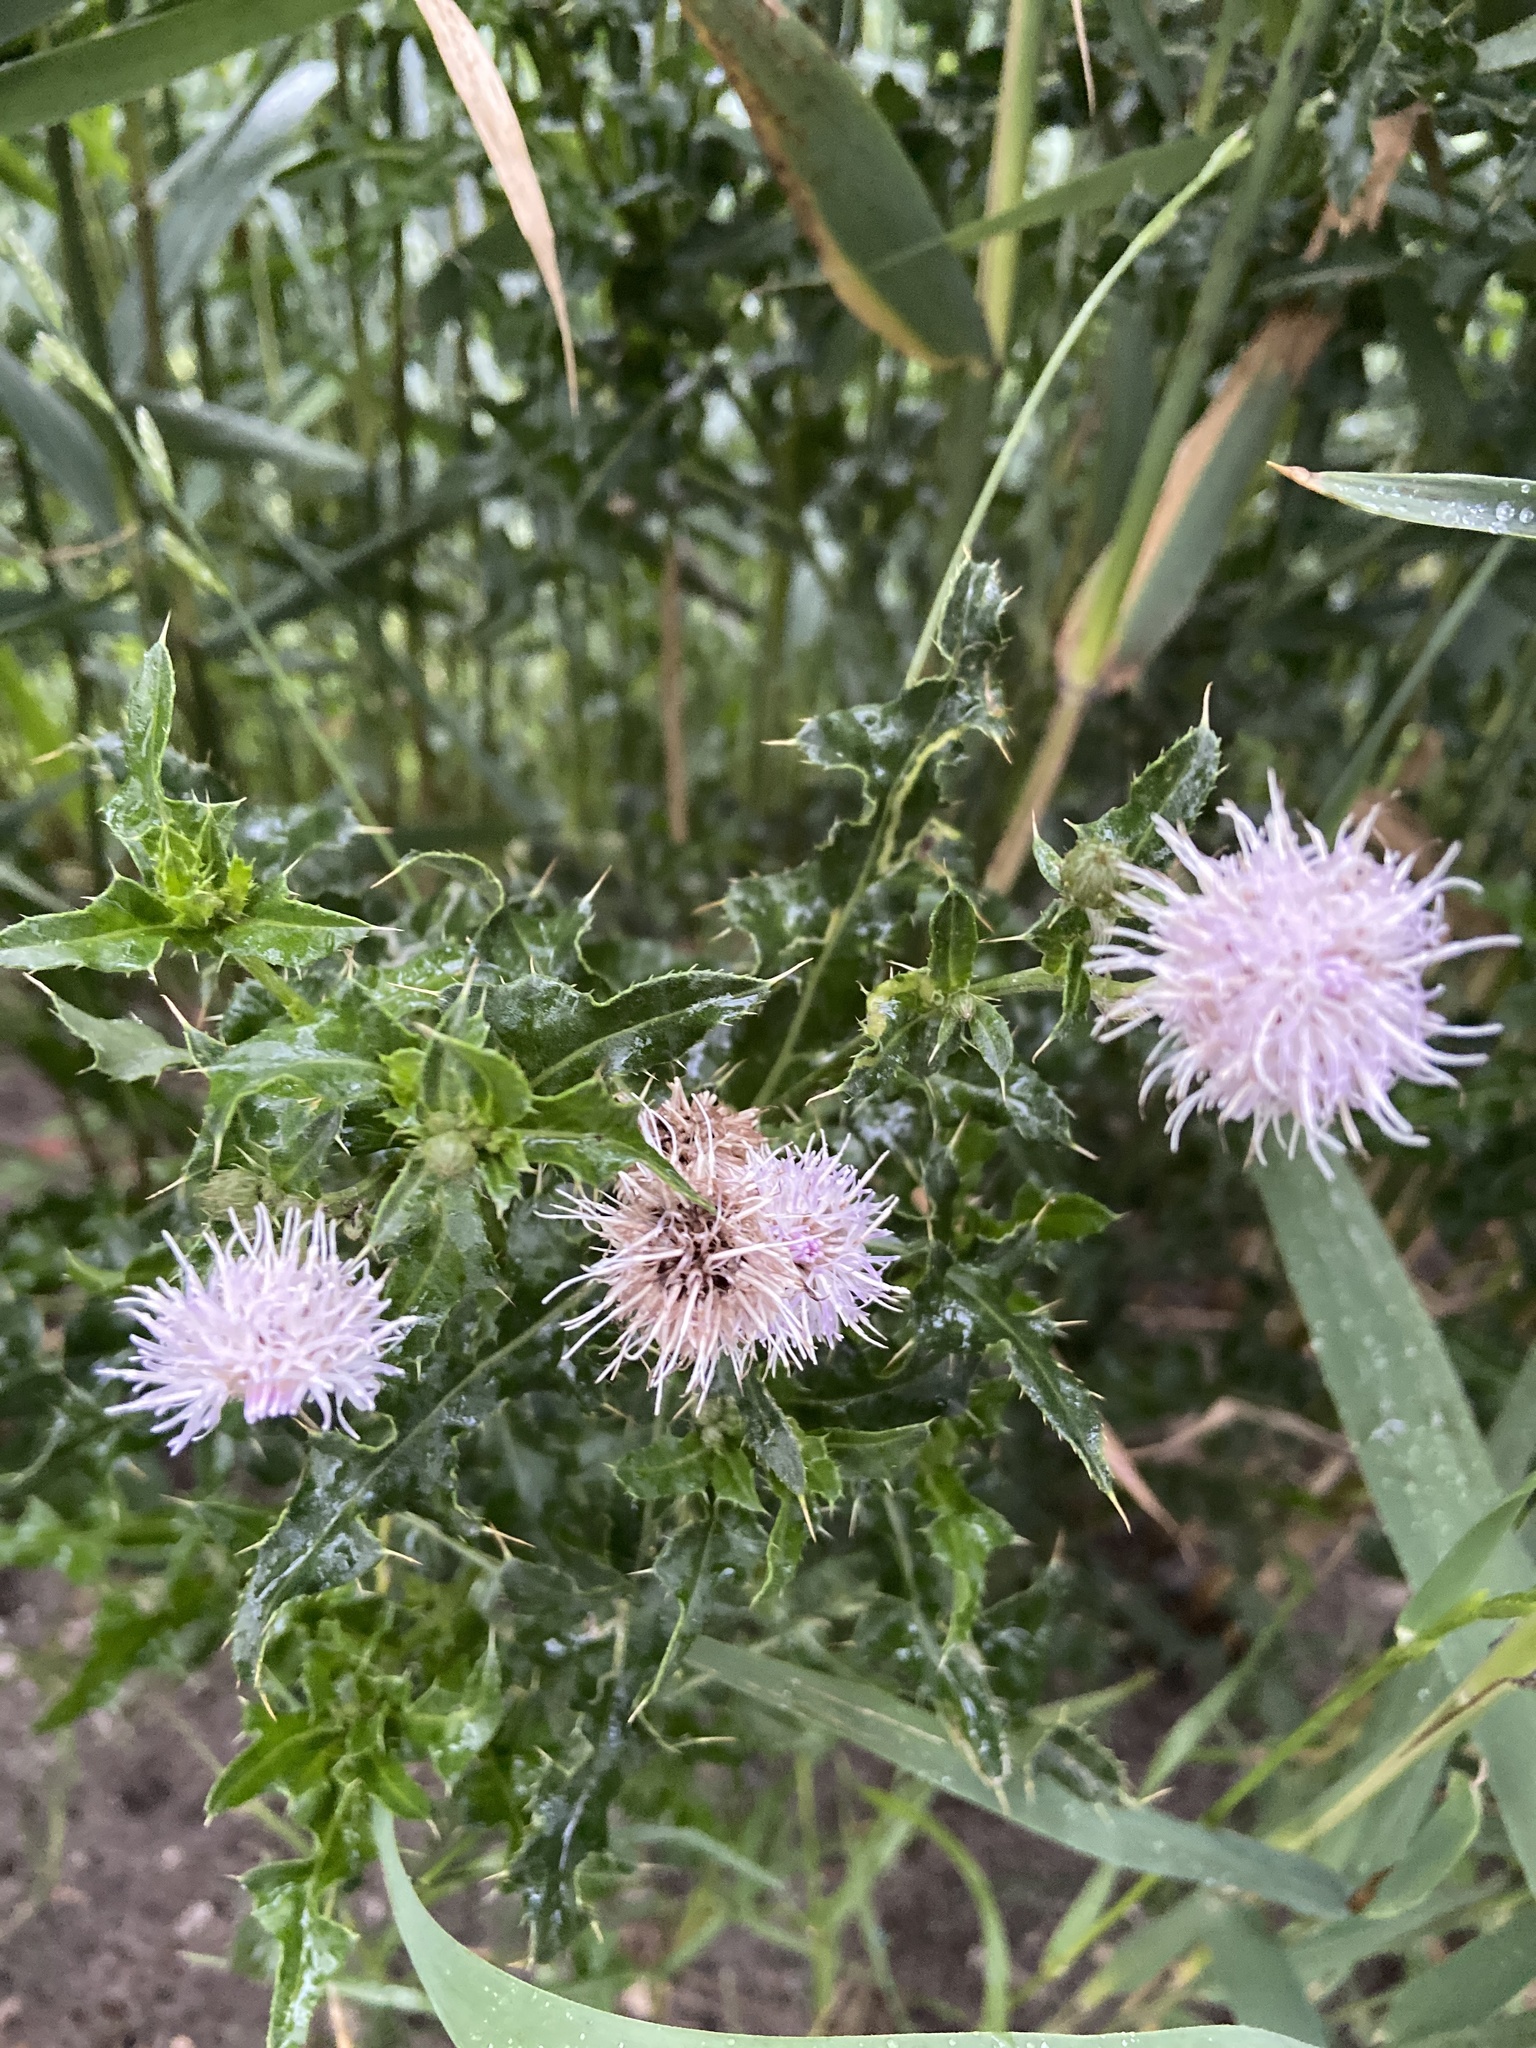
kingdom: Plantae
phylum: Tracheophyta
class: Magnoliopsida
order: Asterales
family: Asteraceae
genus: Cirsium
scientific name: Cirsium arvense
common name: Creeping thistle
